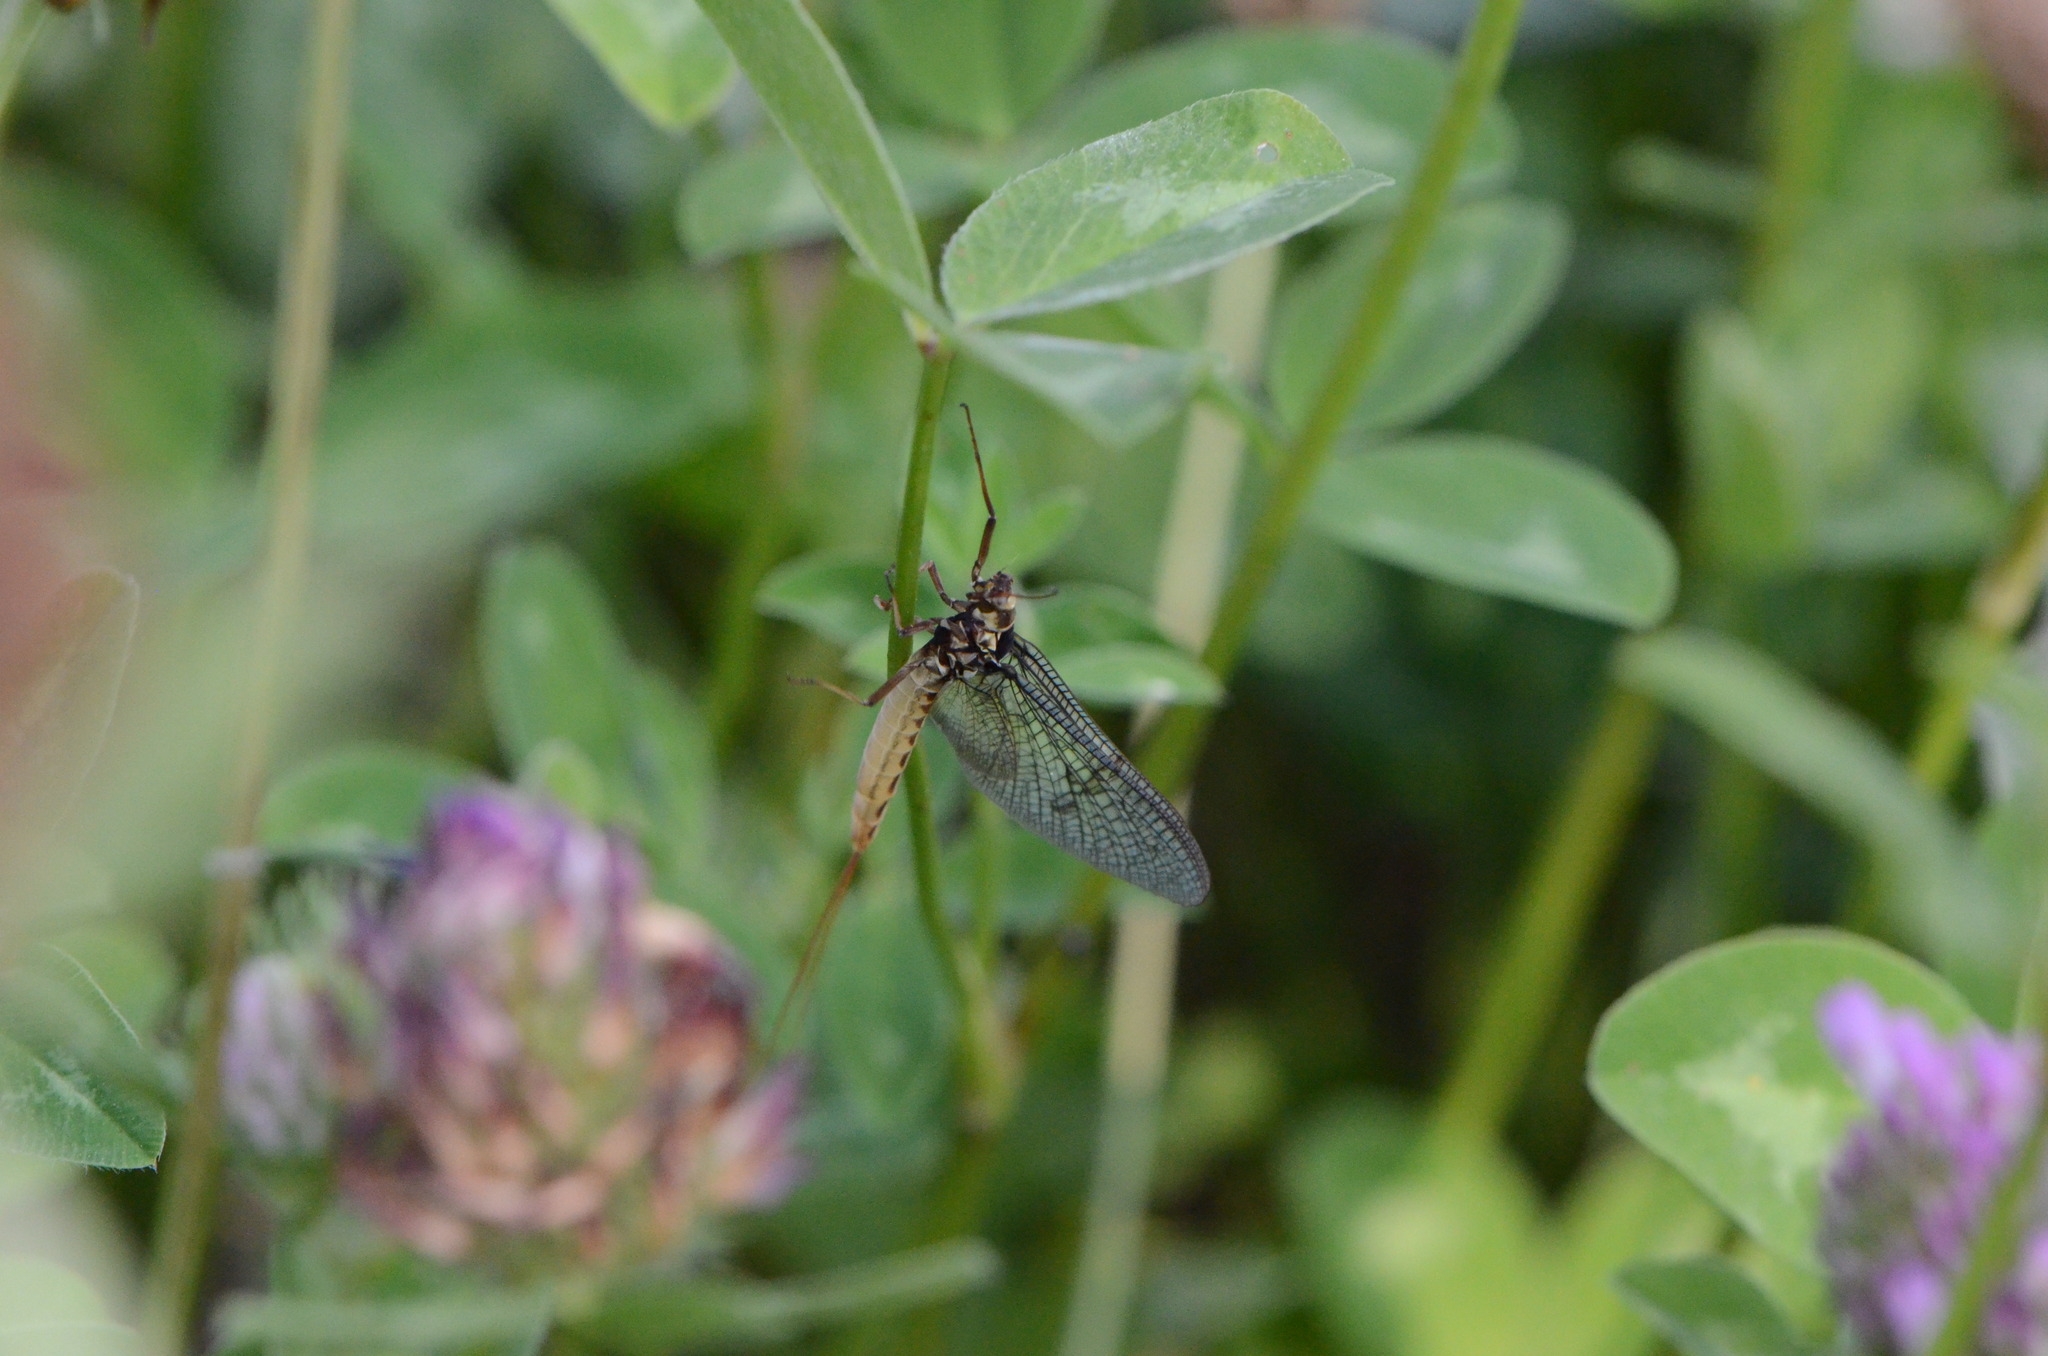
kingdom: Animalia
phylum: Arthropoda
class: Insecta
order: Ephemeroptera
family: Ephemeridae
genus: Ephemera
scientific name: Ephemera vulgata
